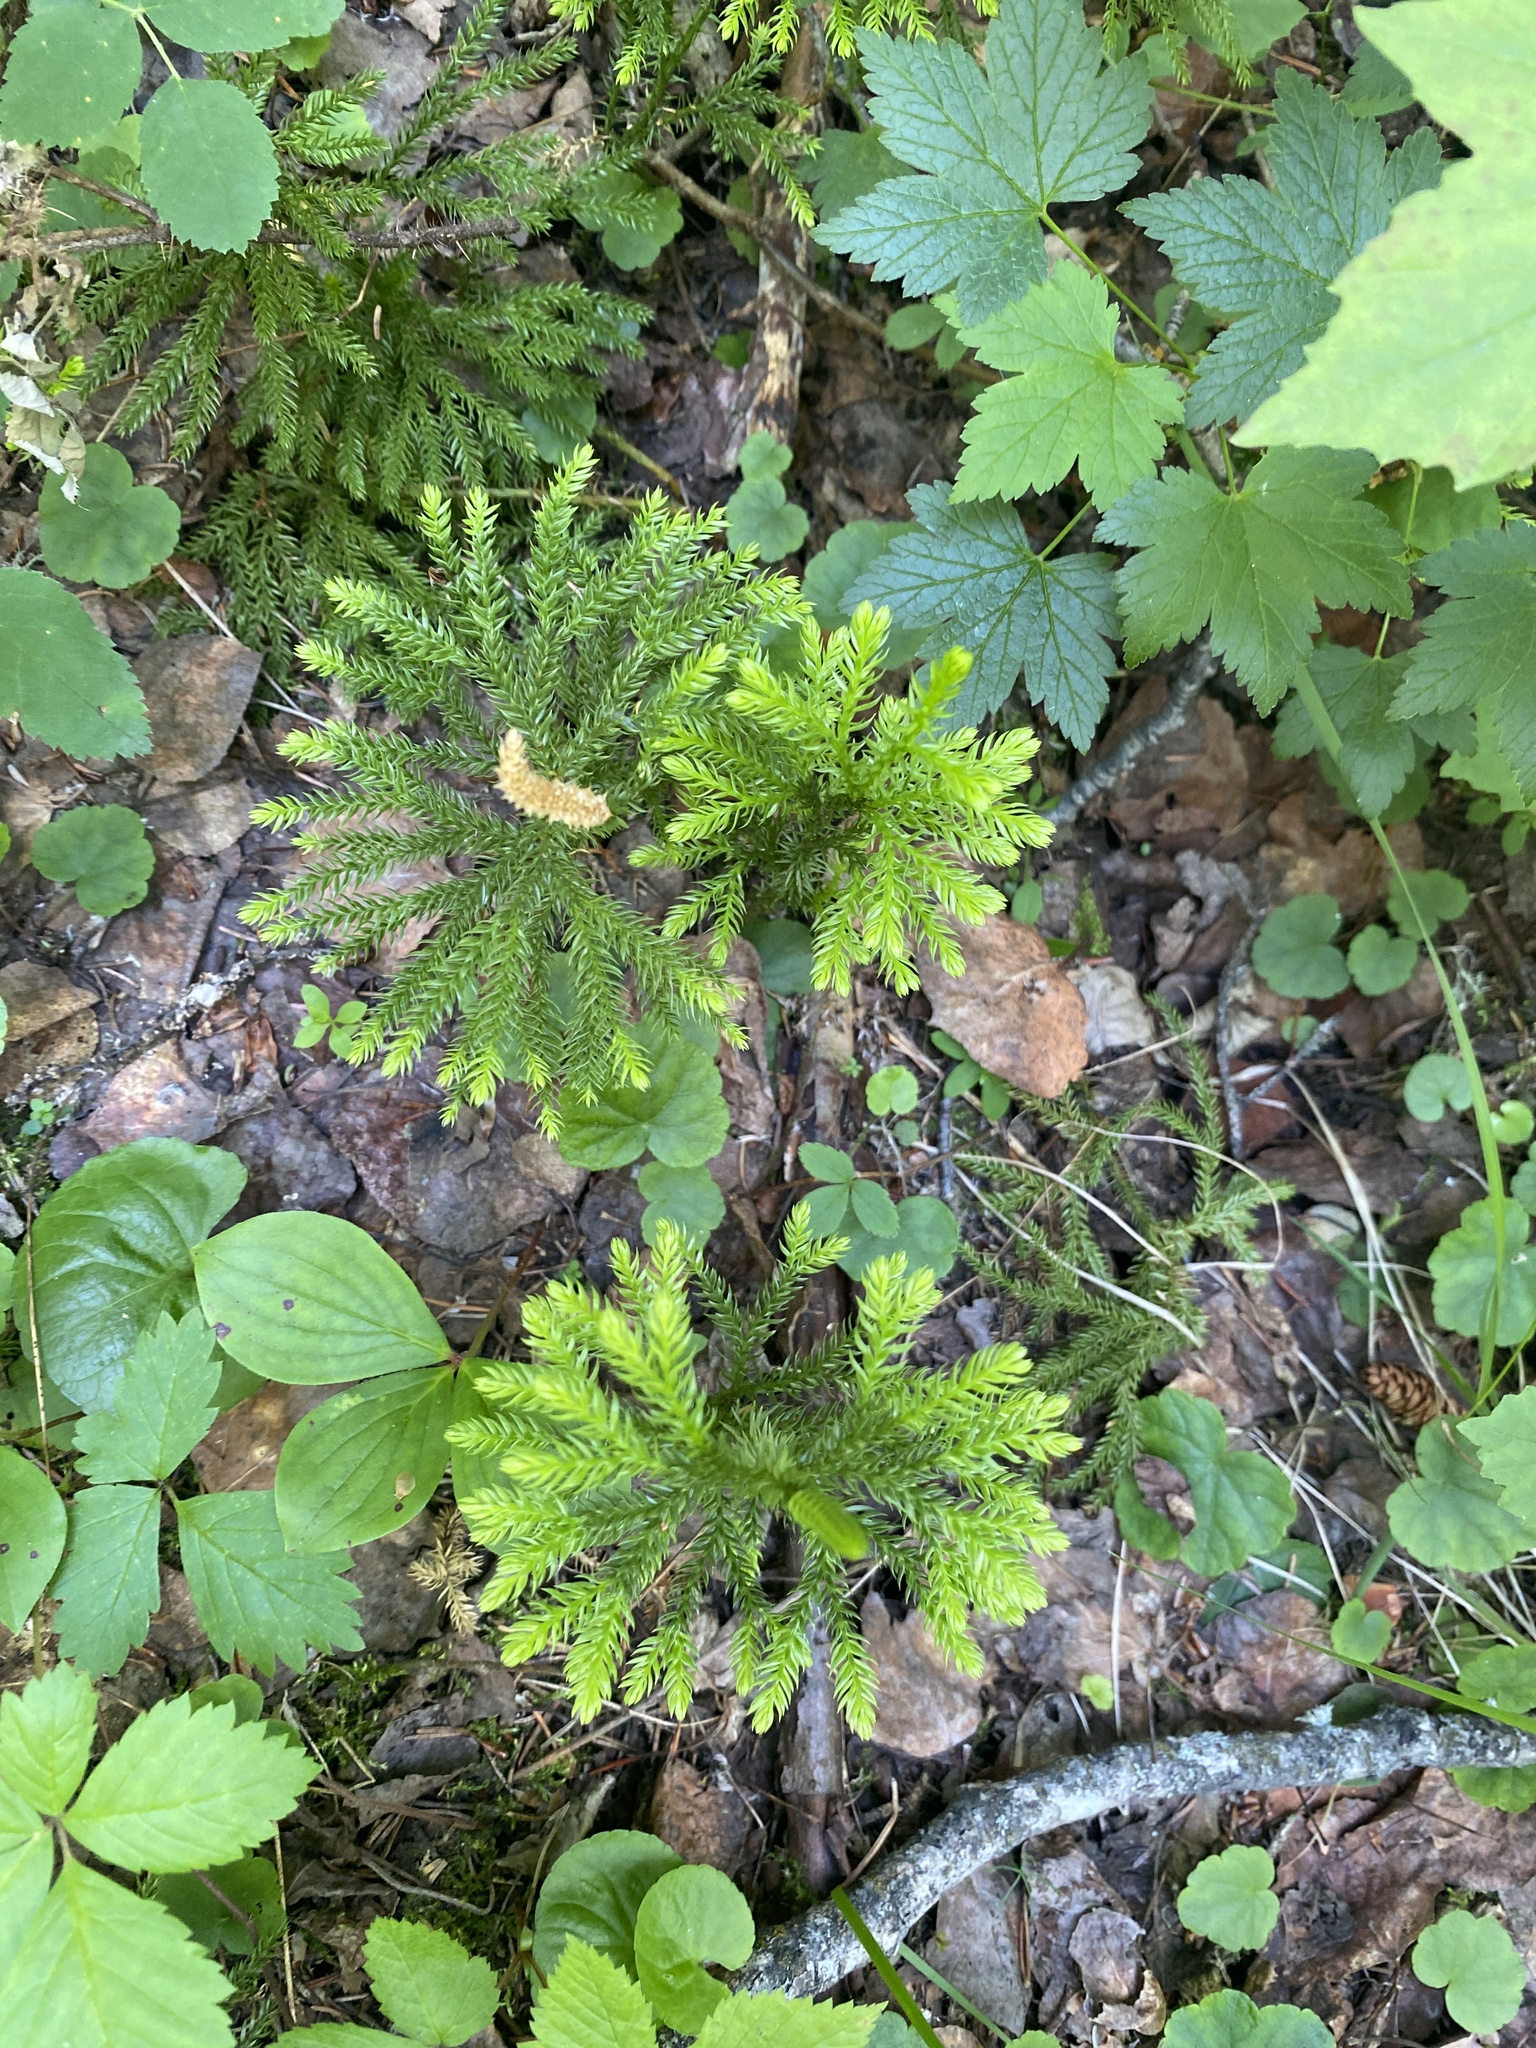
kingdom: Plantae
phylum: Tracheophyta
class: Lycopodiopsida
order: Lycopodiales
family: Lycopodiaceae
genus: Dendrolycopodium
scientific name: Dendrolycopodium dendroideum
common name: Northern tree-clubmoss
